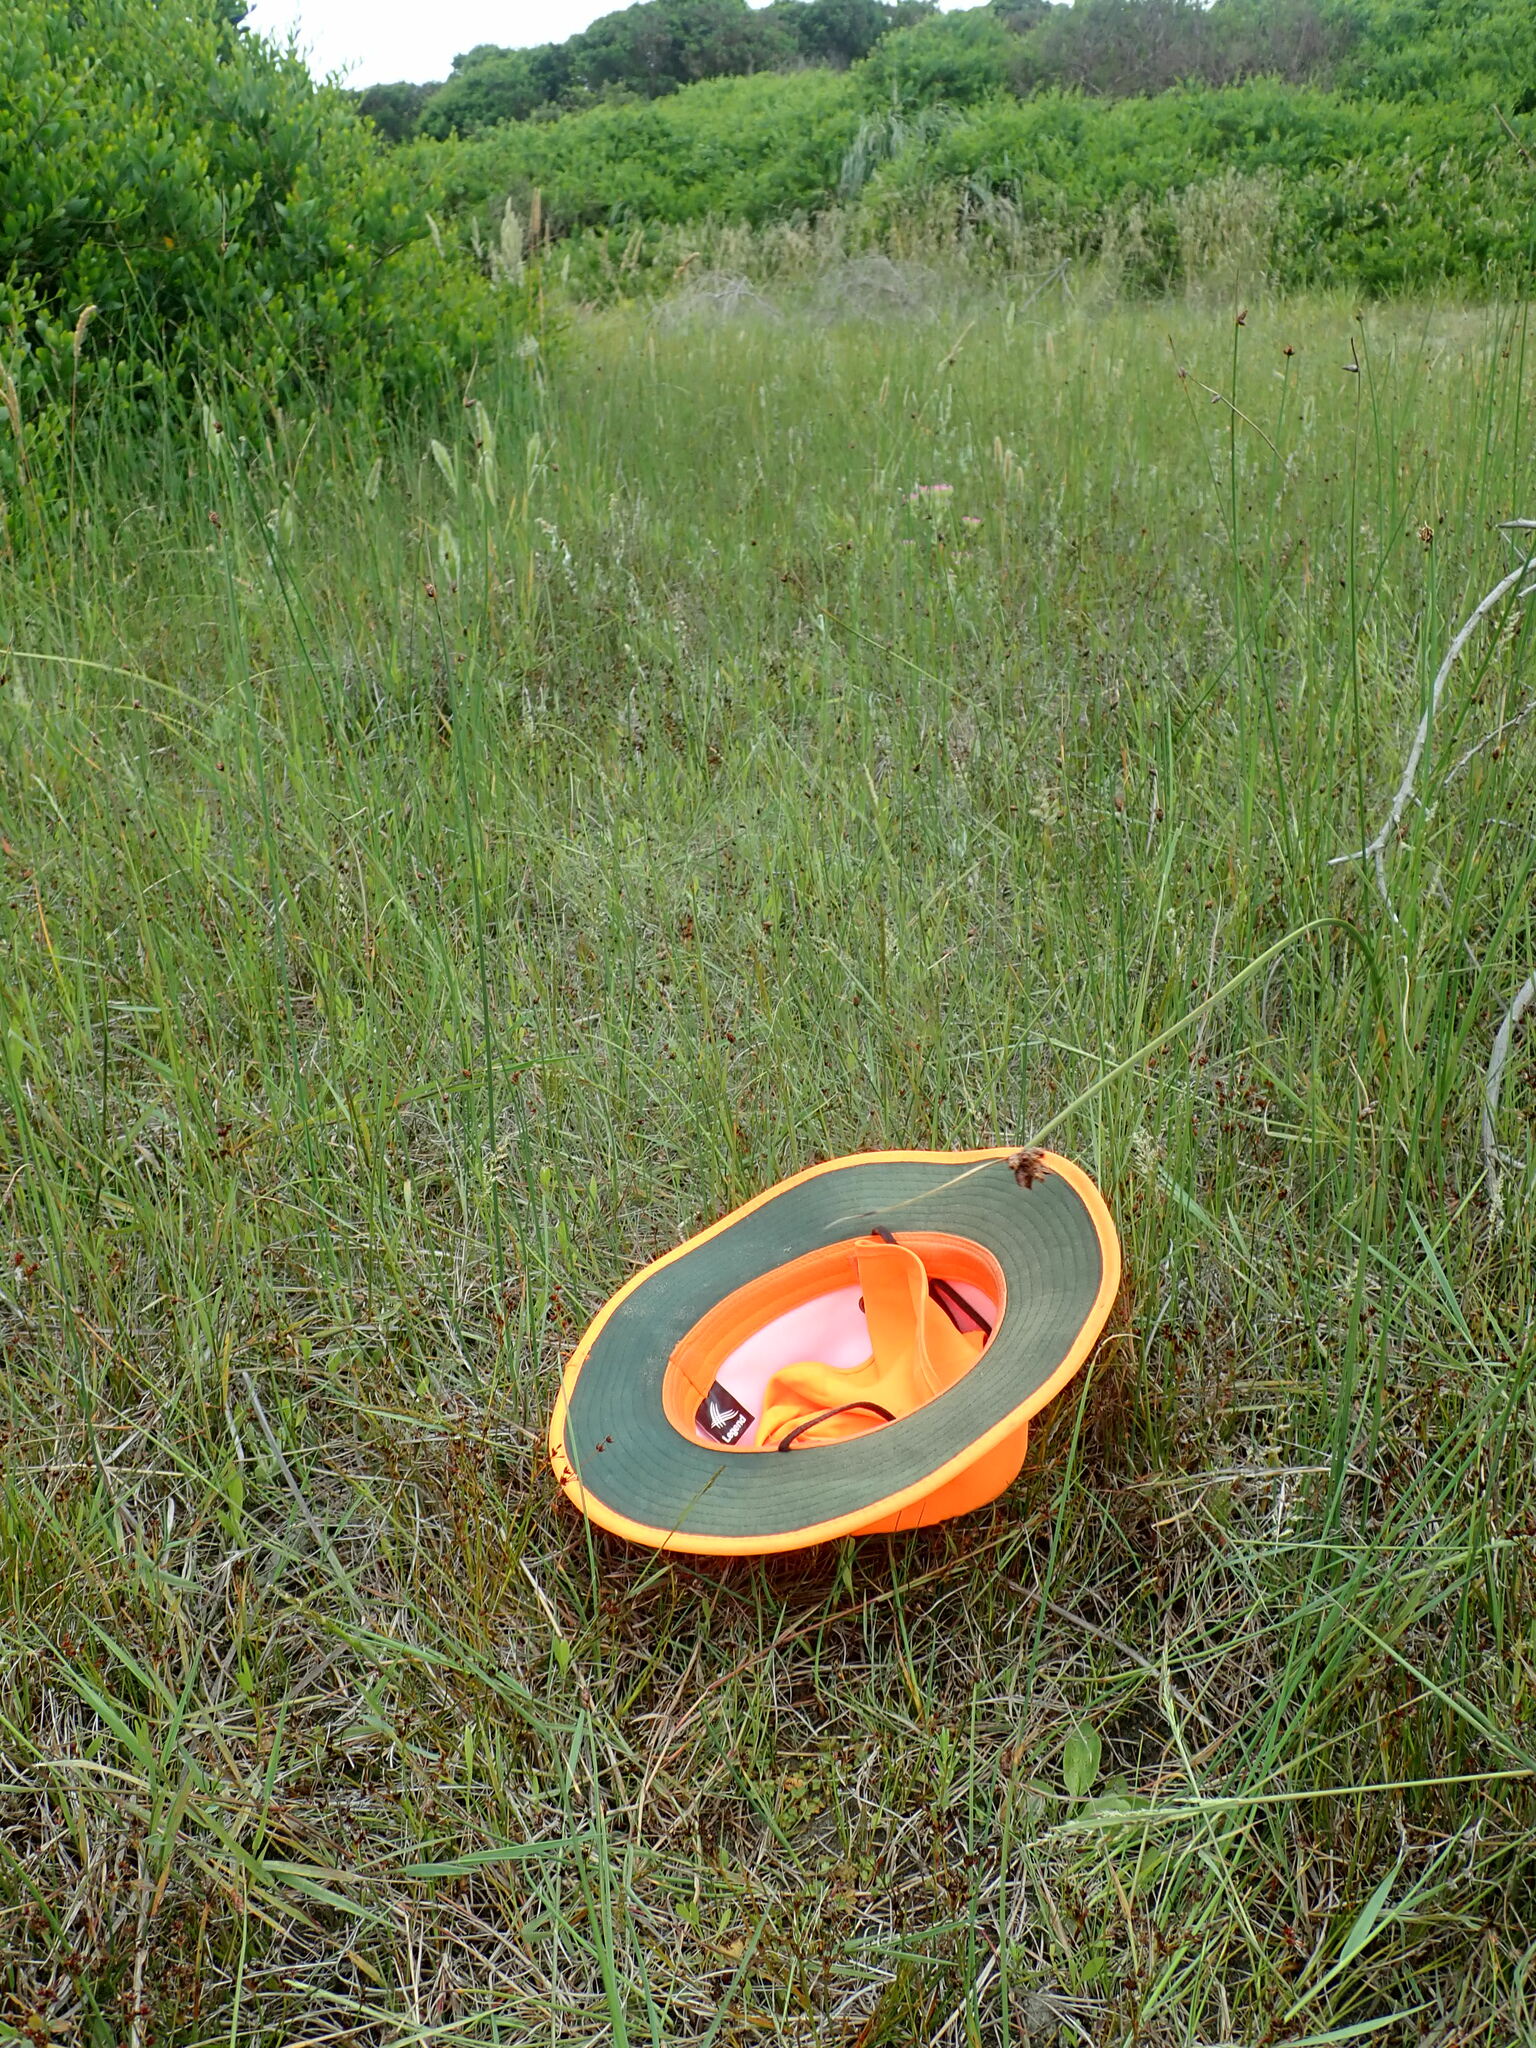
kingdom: Plantae
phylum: Tracheophyta
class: Magnoliopsida
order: Apiales
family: Apiaceae
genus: Helosciadium
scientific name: Helosciadium nodiflorum
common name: Fool's-watercress
